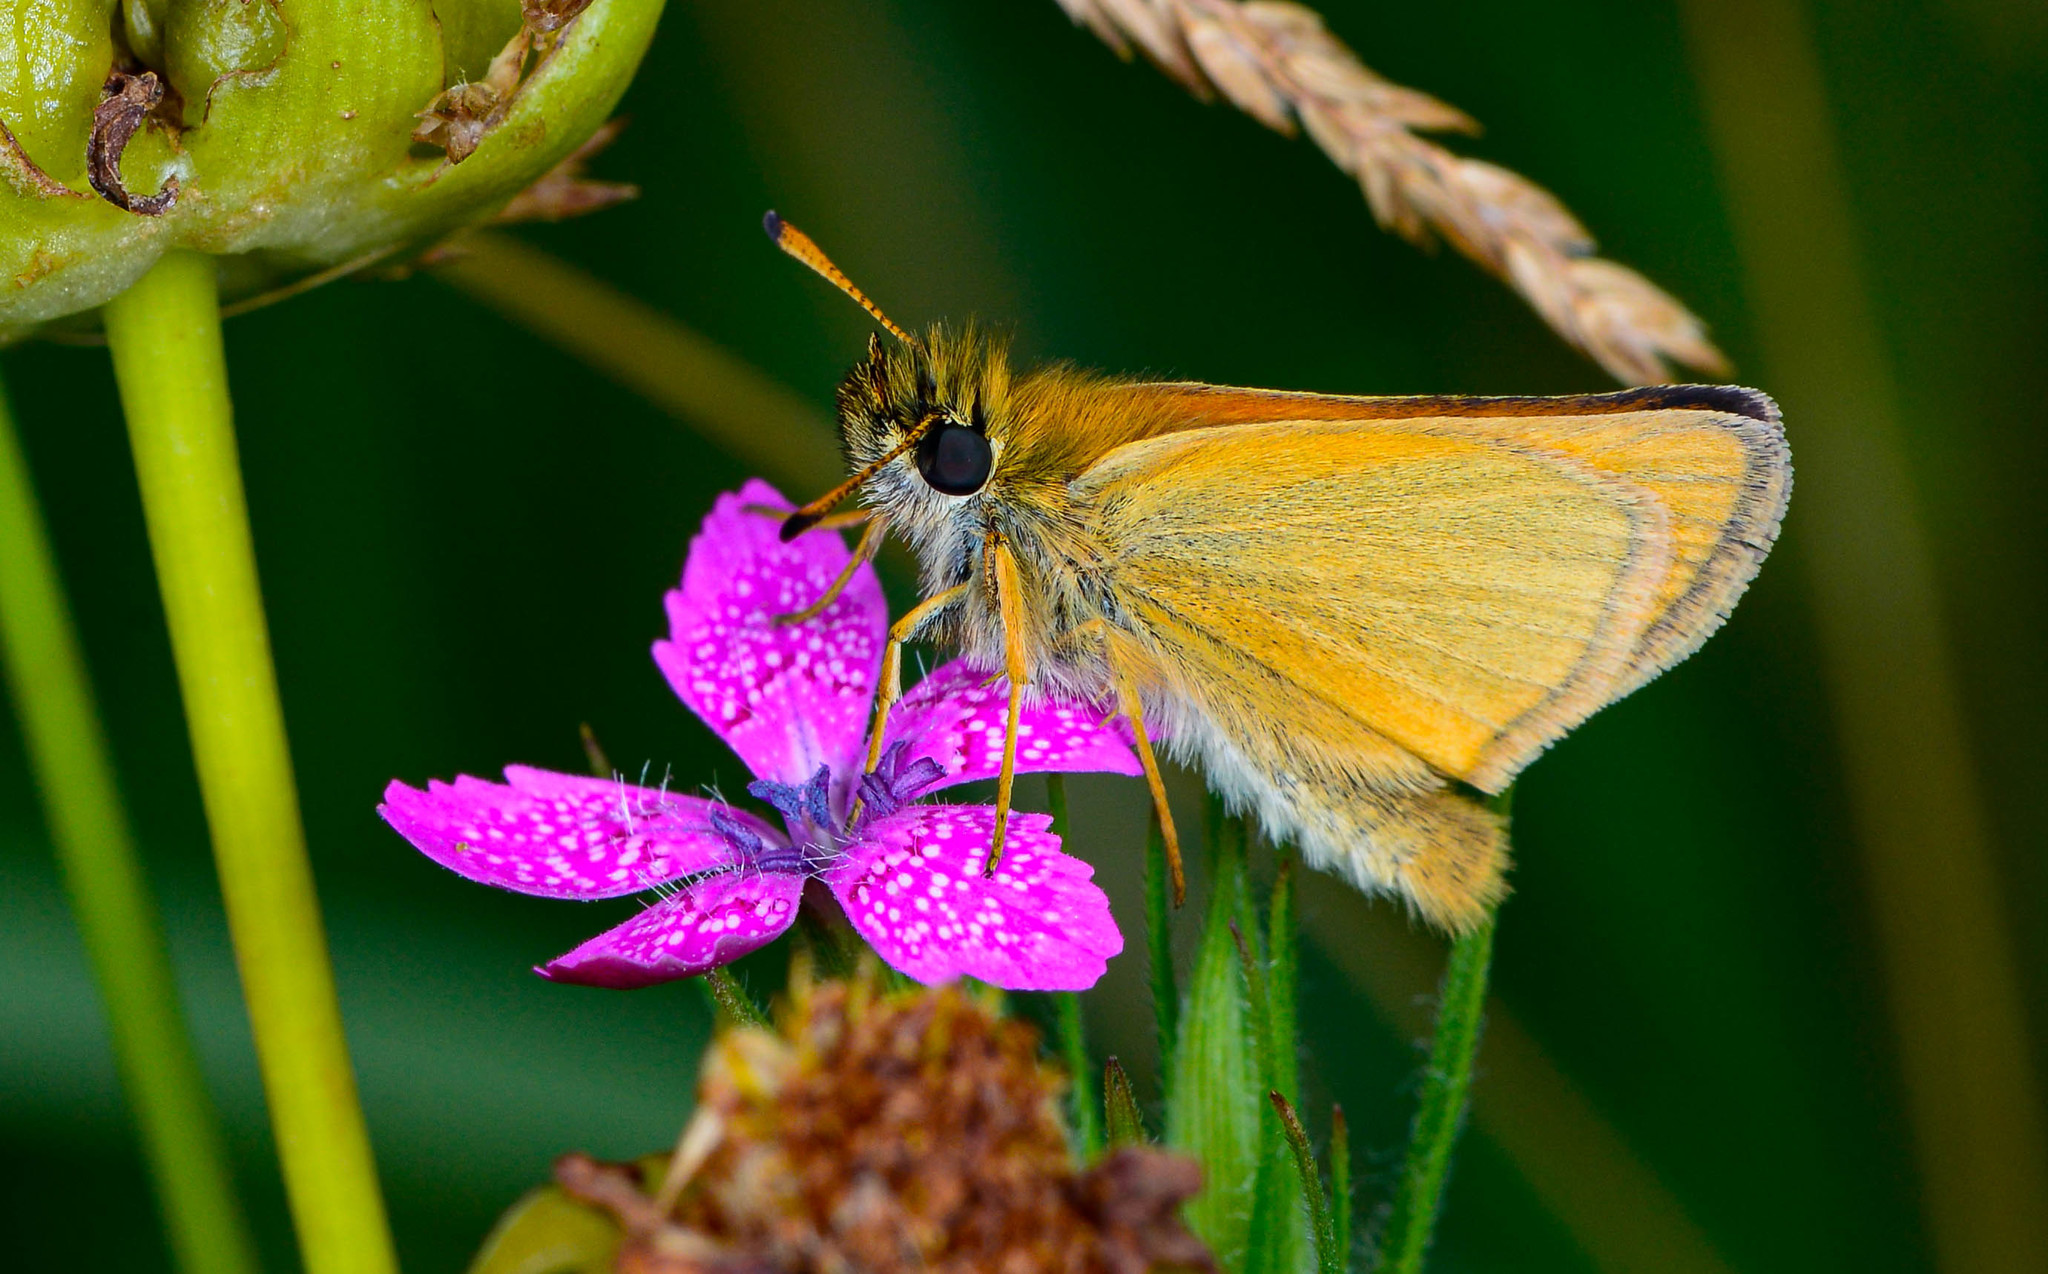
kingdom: Animalia
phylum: Arthropoda
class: Insecta
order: Lepidoptera
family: Hesperiidae
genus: Thymelicus
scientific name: Thymelicus lineola
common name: Essex skipper
